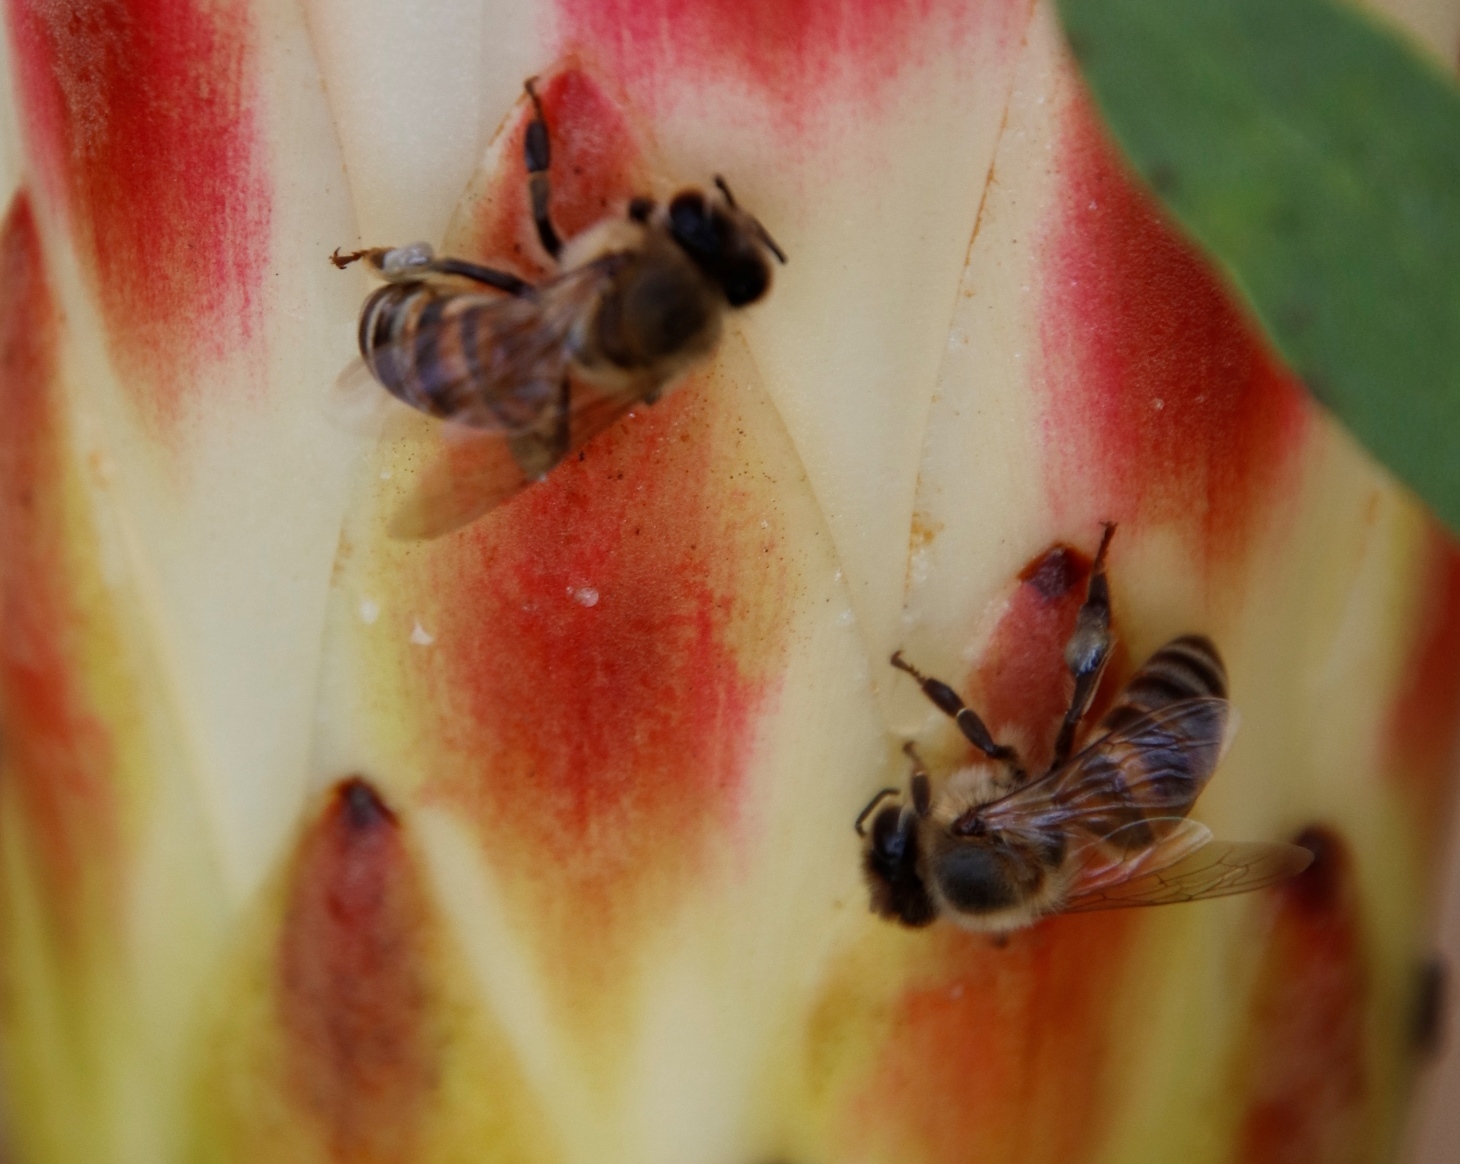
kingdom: Plantae
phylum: Tracheophyta
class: Magnoliopsida
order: Proteales
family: Proteaceae
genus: Protea
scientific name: Protea repens
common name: Sugarbush
